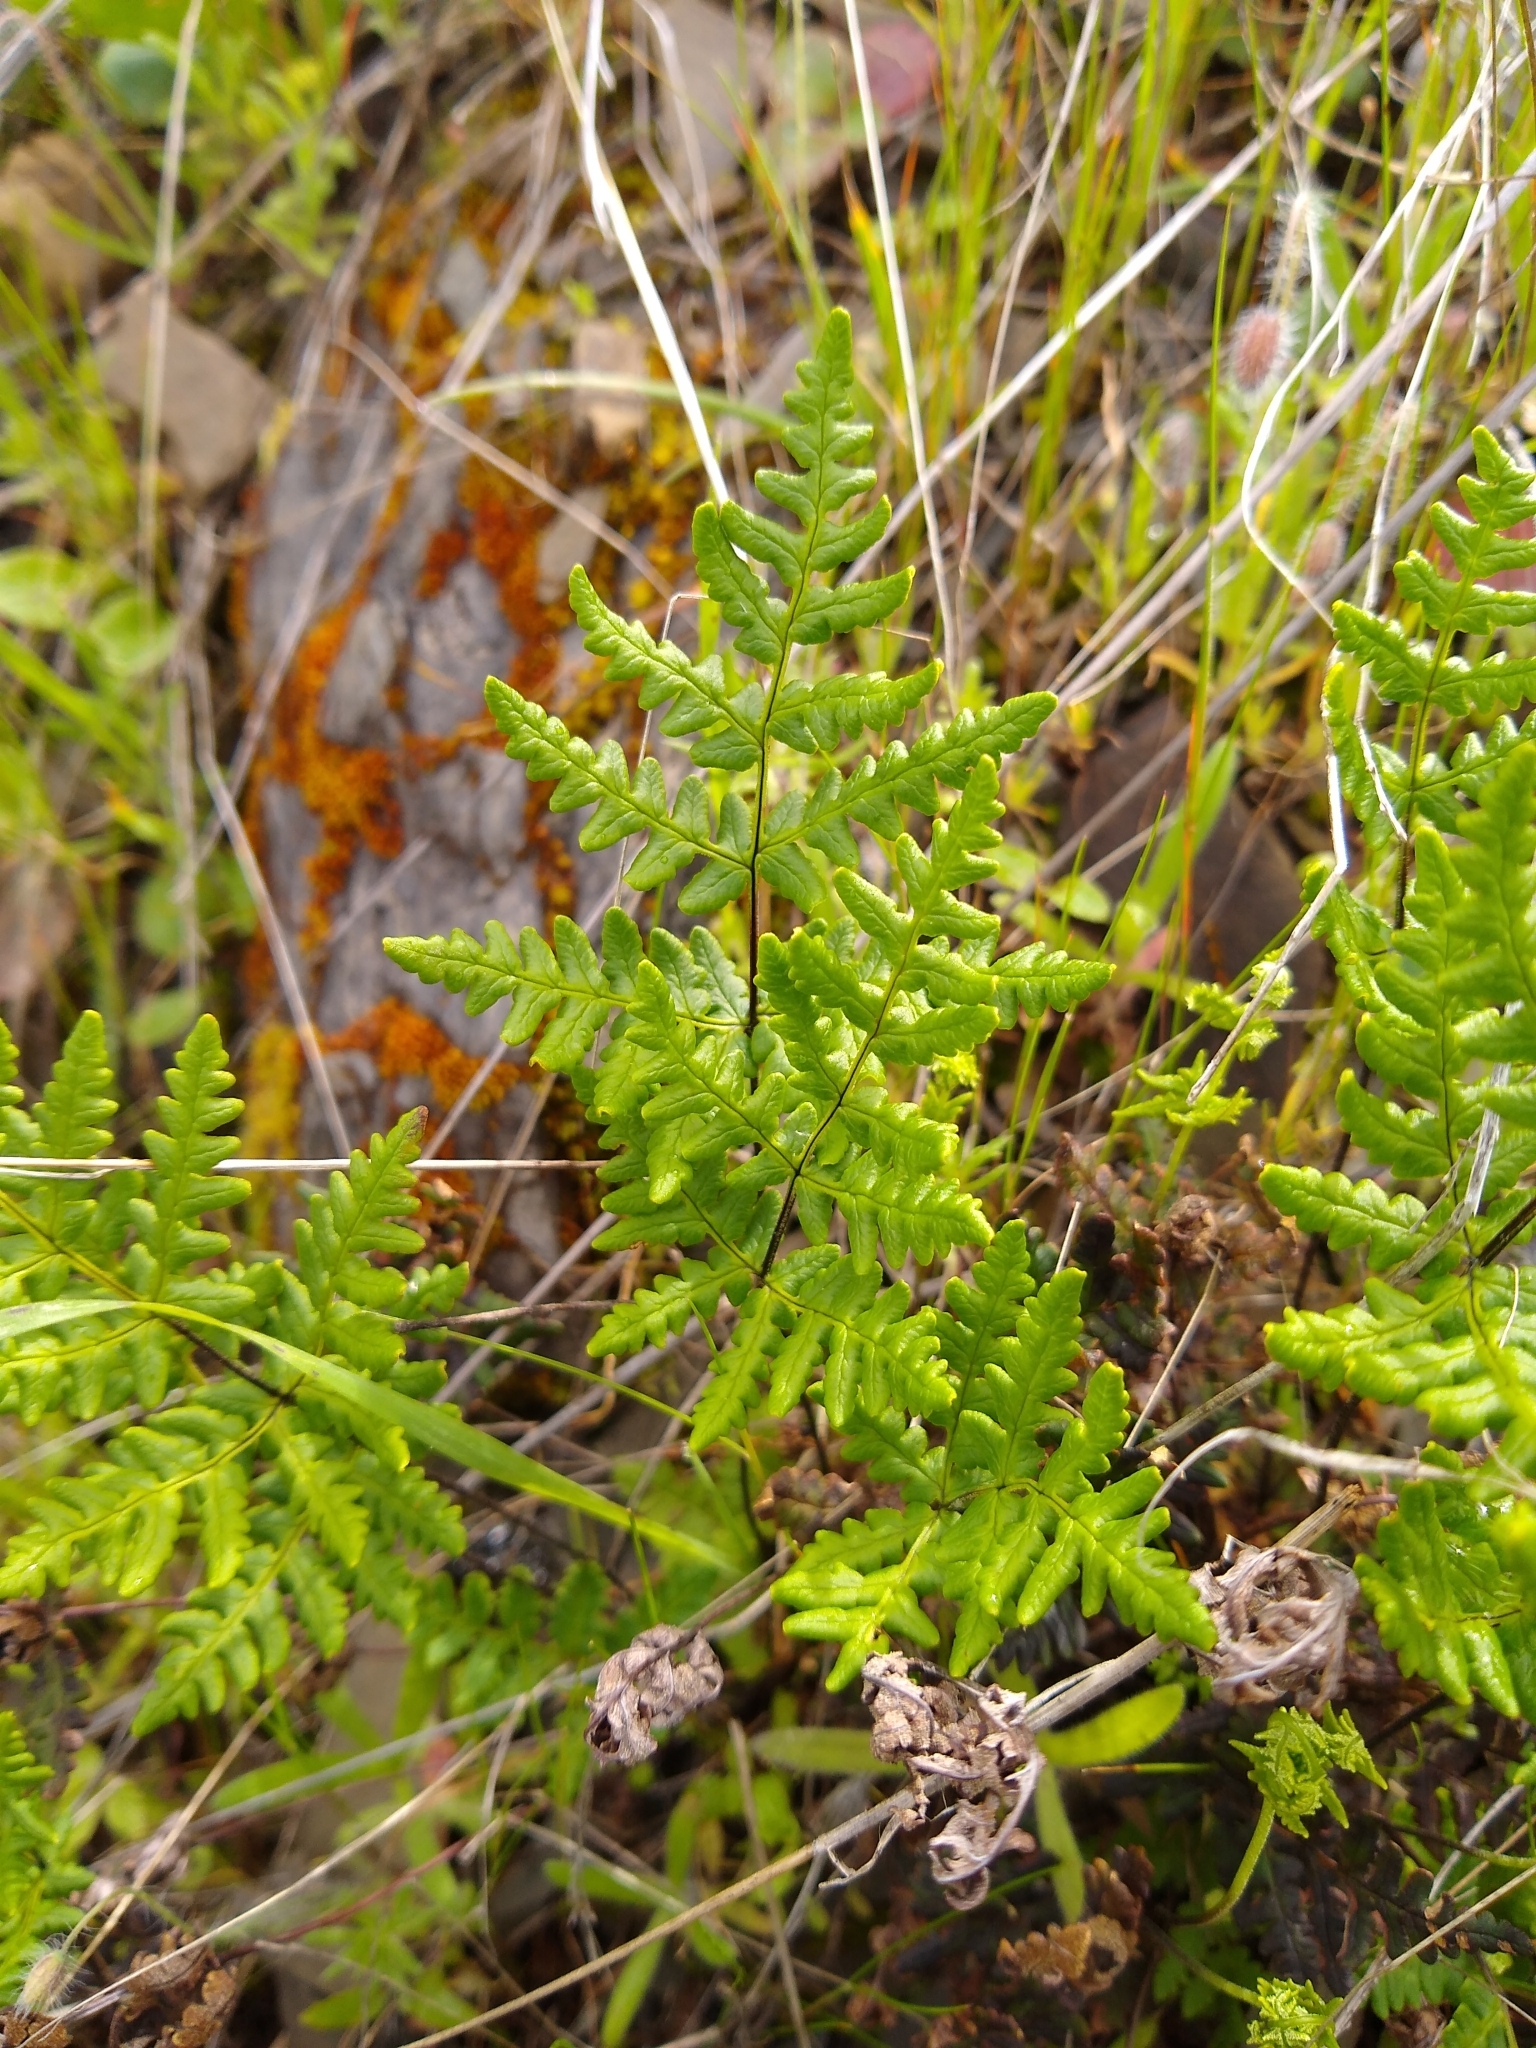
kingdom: Plantae
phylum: Tracheophyta
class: Polypodiopsida
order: Polypodiales
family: Pteridaceae
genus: Pentagramma
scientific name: Pentagramma triangularis
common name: Gold fern
